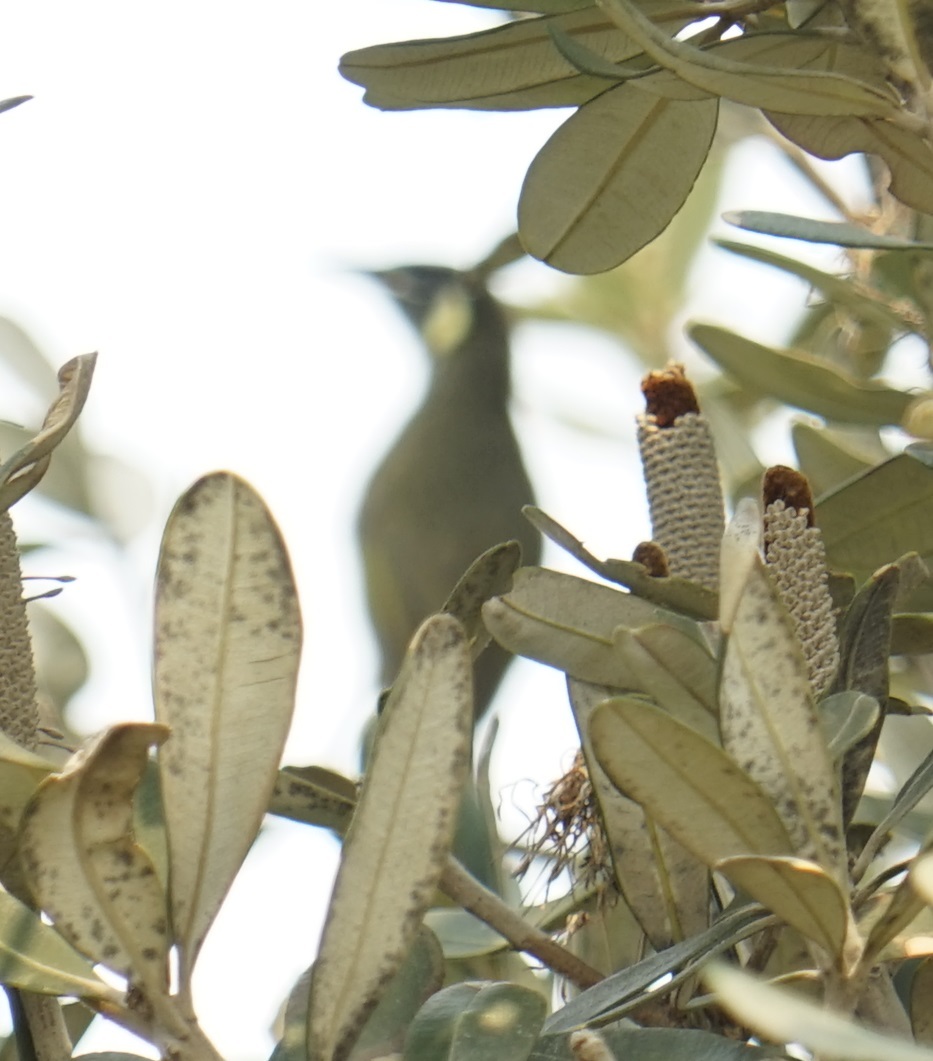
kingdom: Animalia
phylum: Chordata
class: Aves
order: Passeriformes
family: Meliphagidae
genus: Meliphaga
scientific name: Meliphaga lewinii
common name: Lewin's honeyeater
